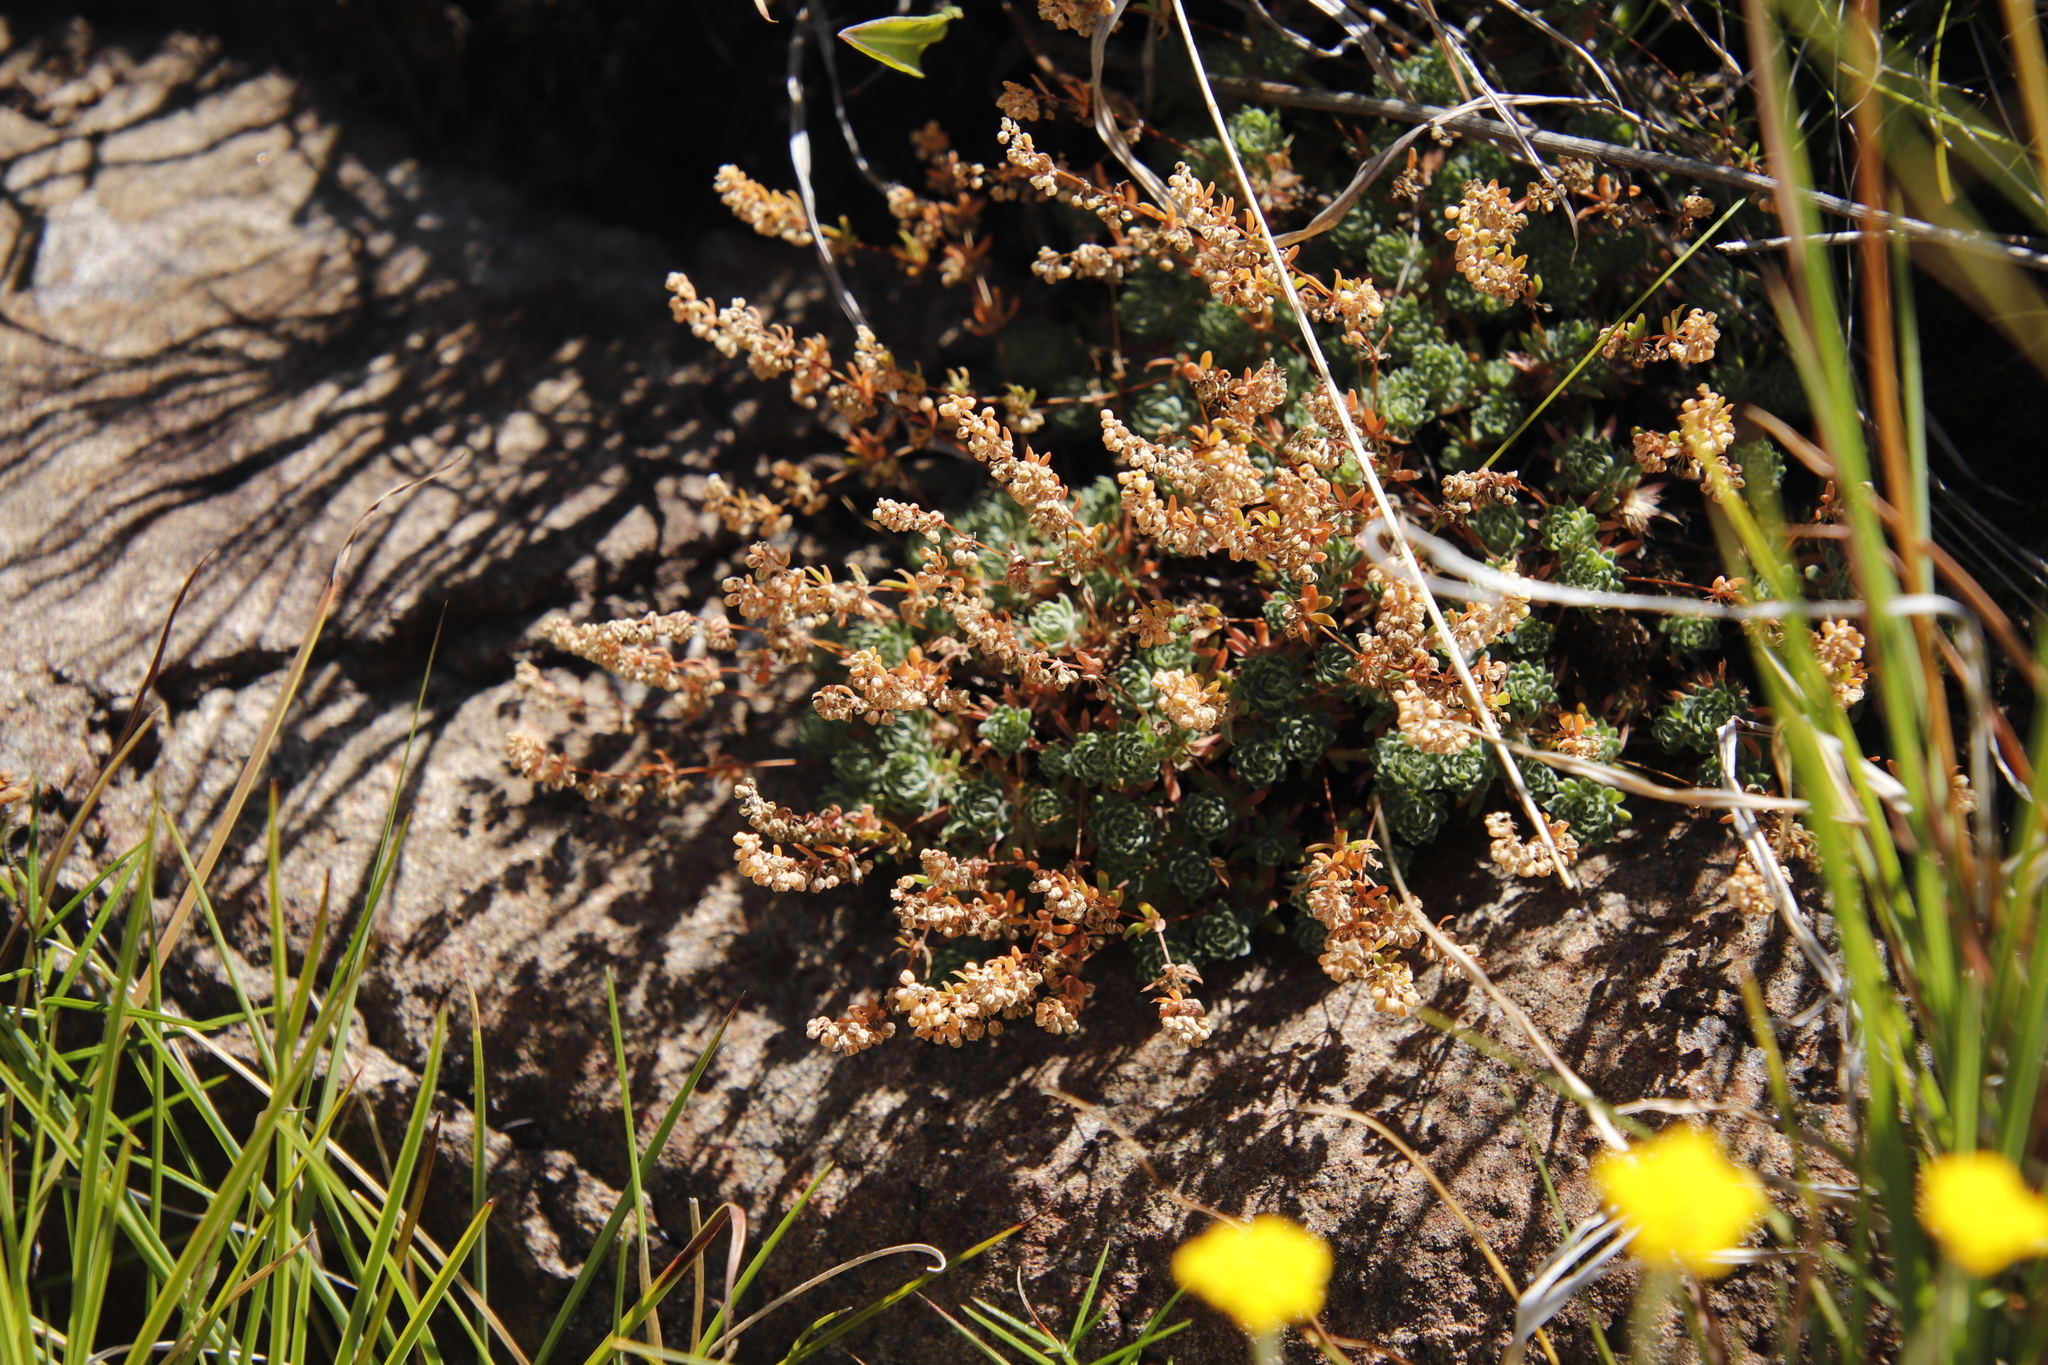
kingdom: Plantae
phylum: Tracheophyta
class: Magnoliopsida
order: Caryophyllales
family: Molluginaceae
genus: Psammotropha
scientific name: Psammotropha mucronata
